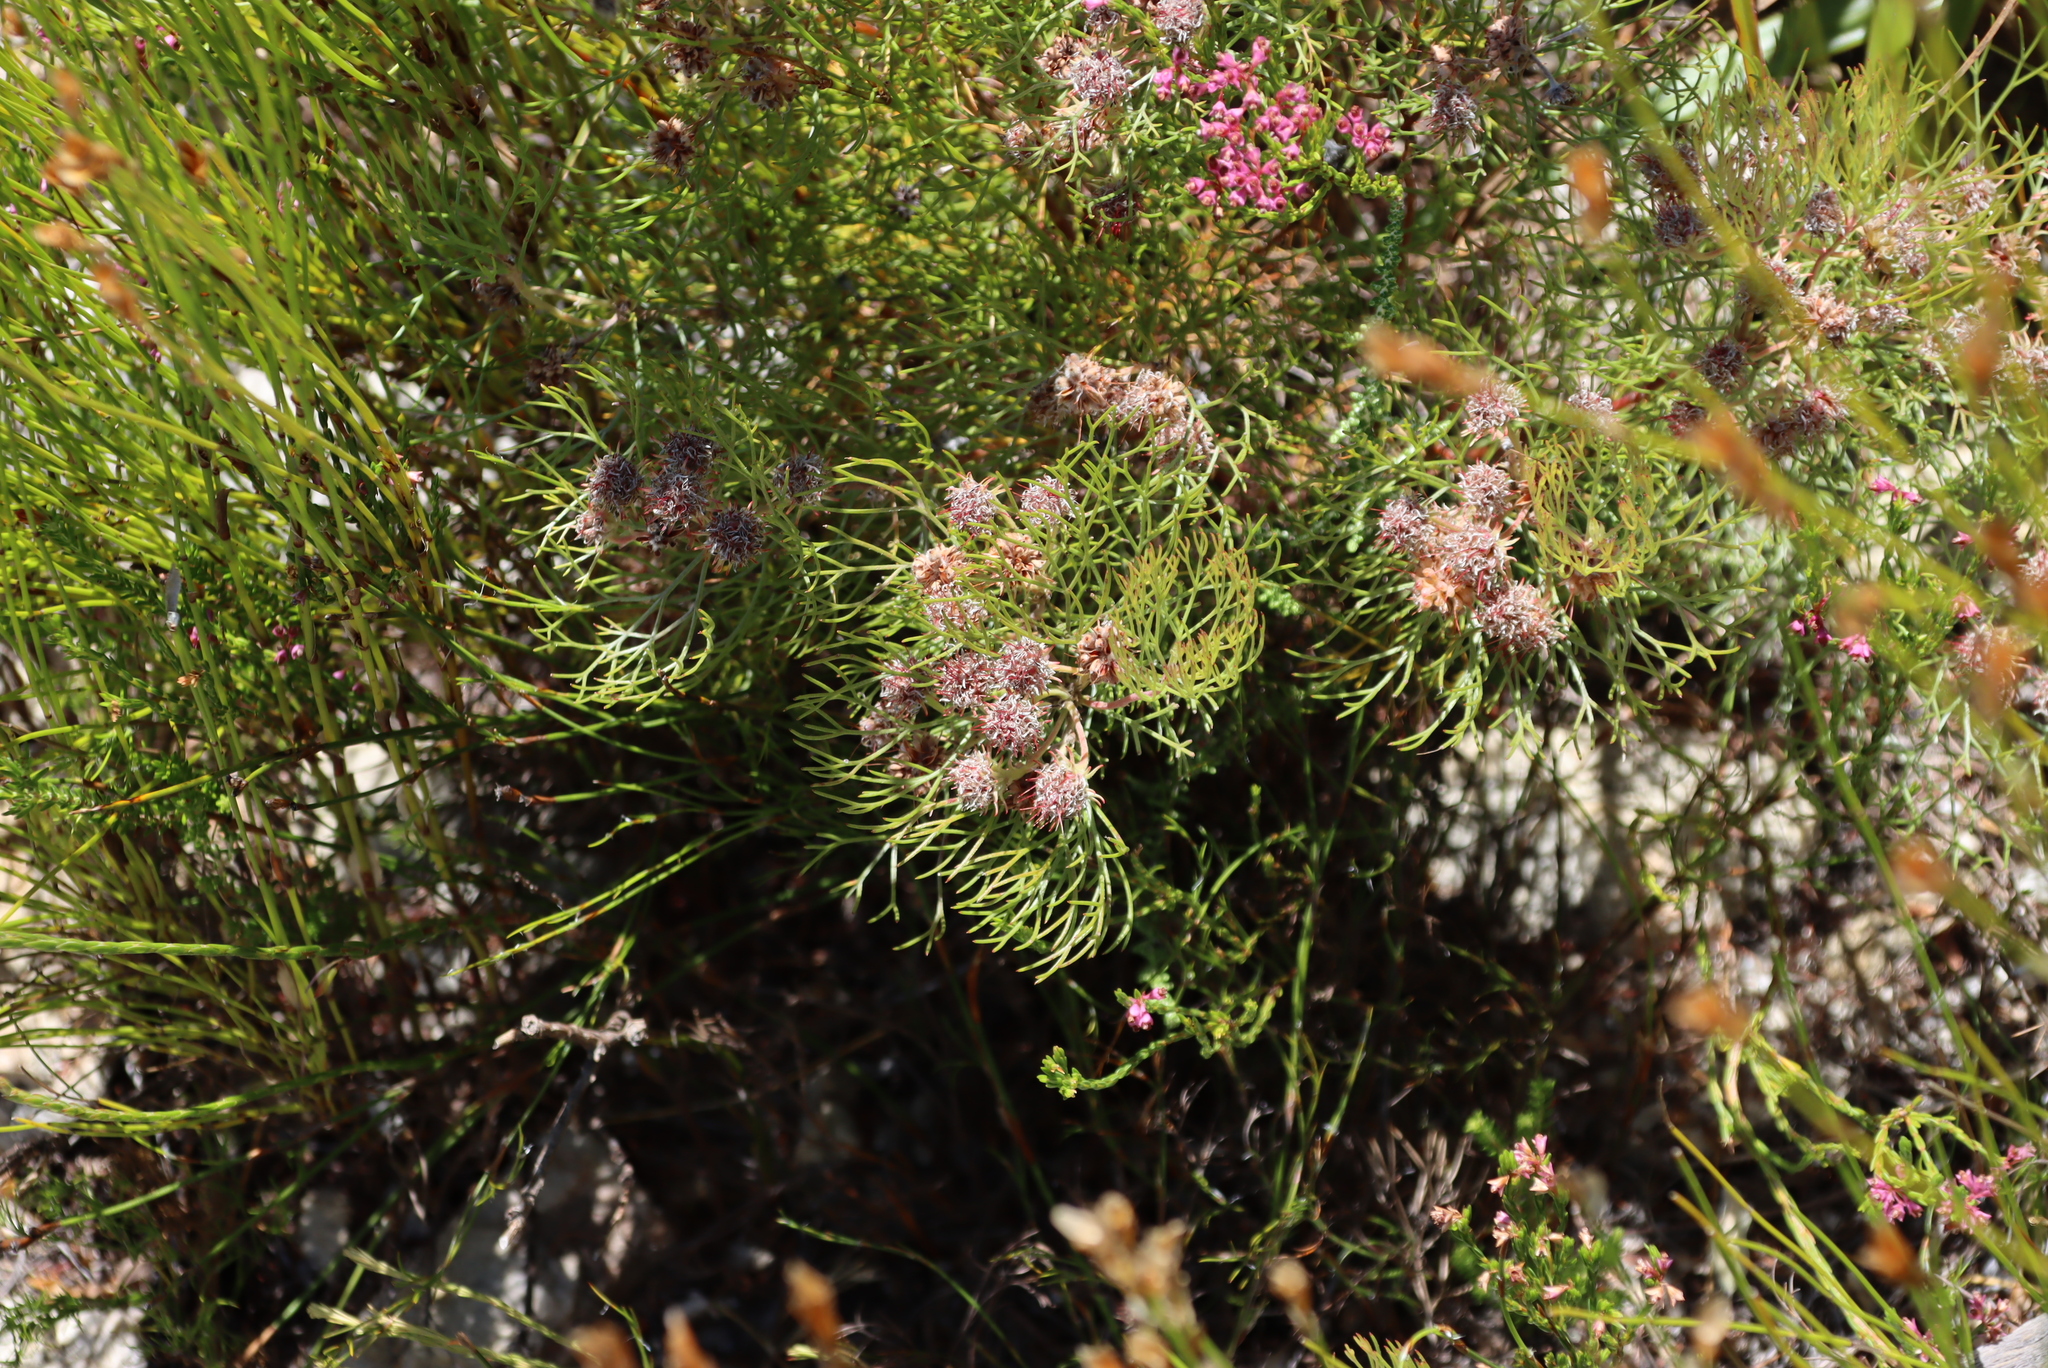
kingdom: Plantae
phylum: Tracheophyta
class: Magnoliopsida
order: Proteales
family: Proteaceae
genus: Serruria
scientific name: Serruria fasciflora
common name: Common pin spiderhead
